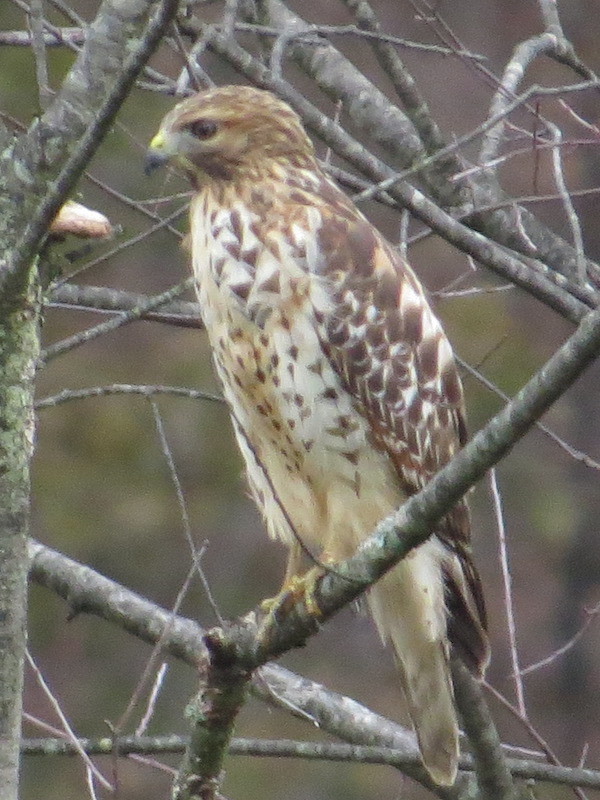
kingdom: Animalia
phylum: Chordata
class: Aves
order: Accipitriformes
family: Accipitridae
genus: Buteo
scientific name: Buteo jamaicensis
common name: Red-tailed hawk
